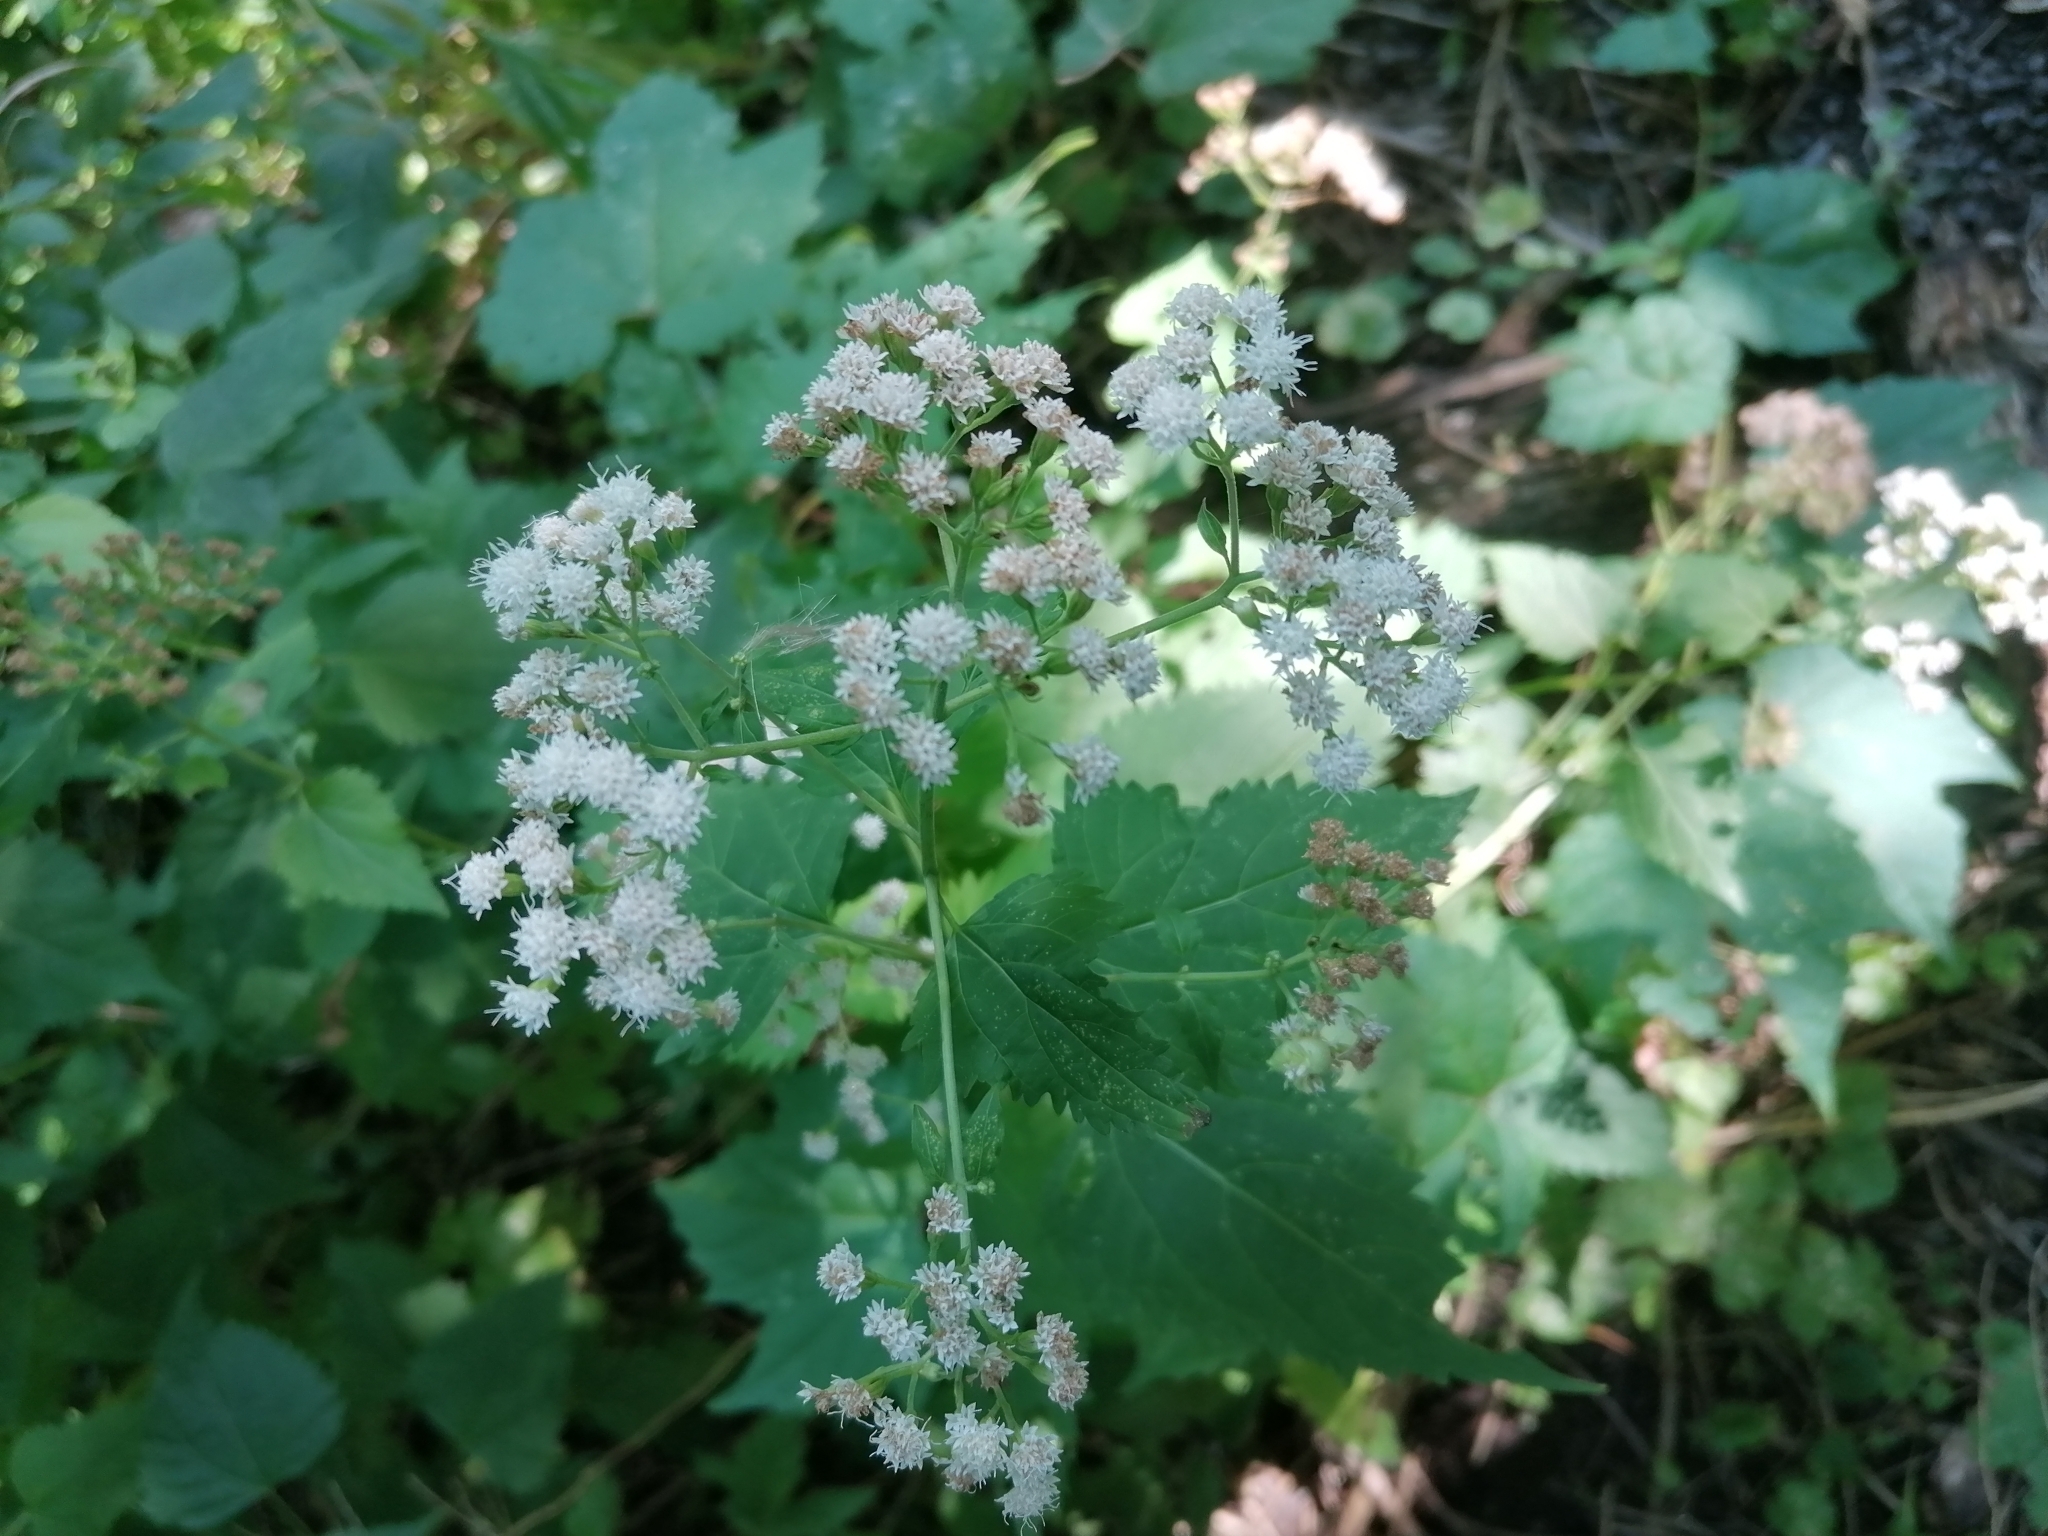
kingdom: Plantae
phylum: Tracheophyta
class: Magnoliopsida
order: Asterales
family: Asteraceae
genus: Ageratina
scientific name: Ageratina altissima
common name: White snakeroot
